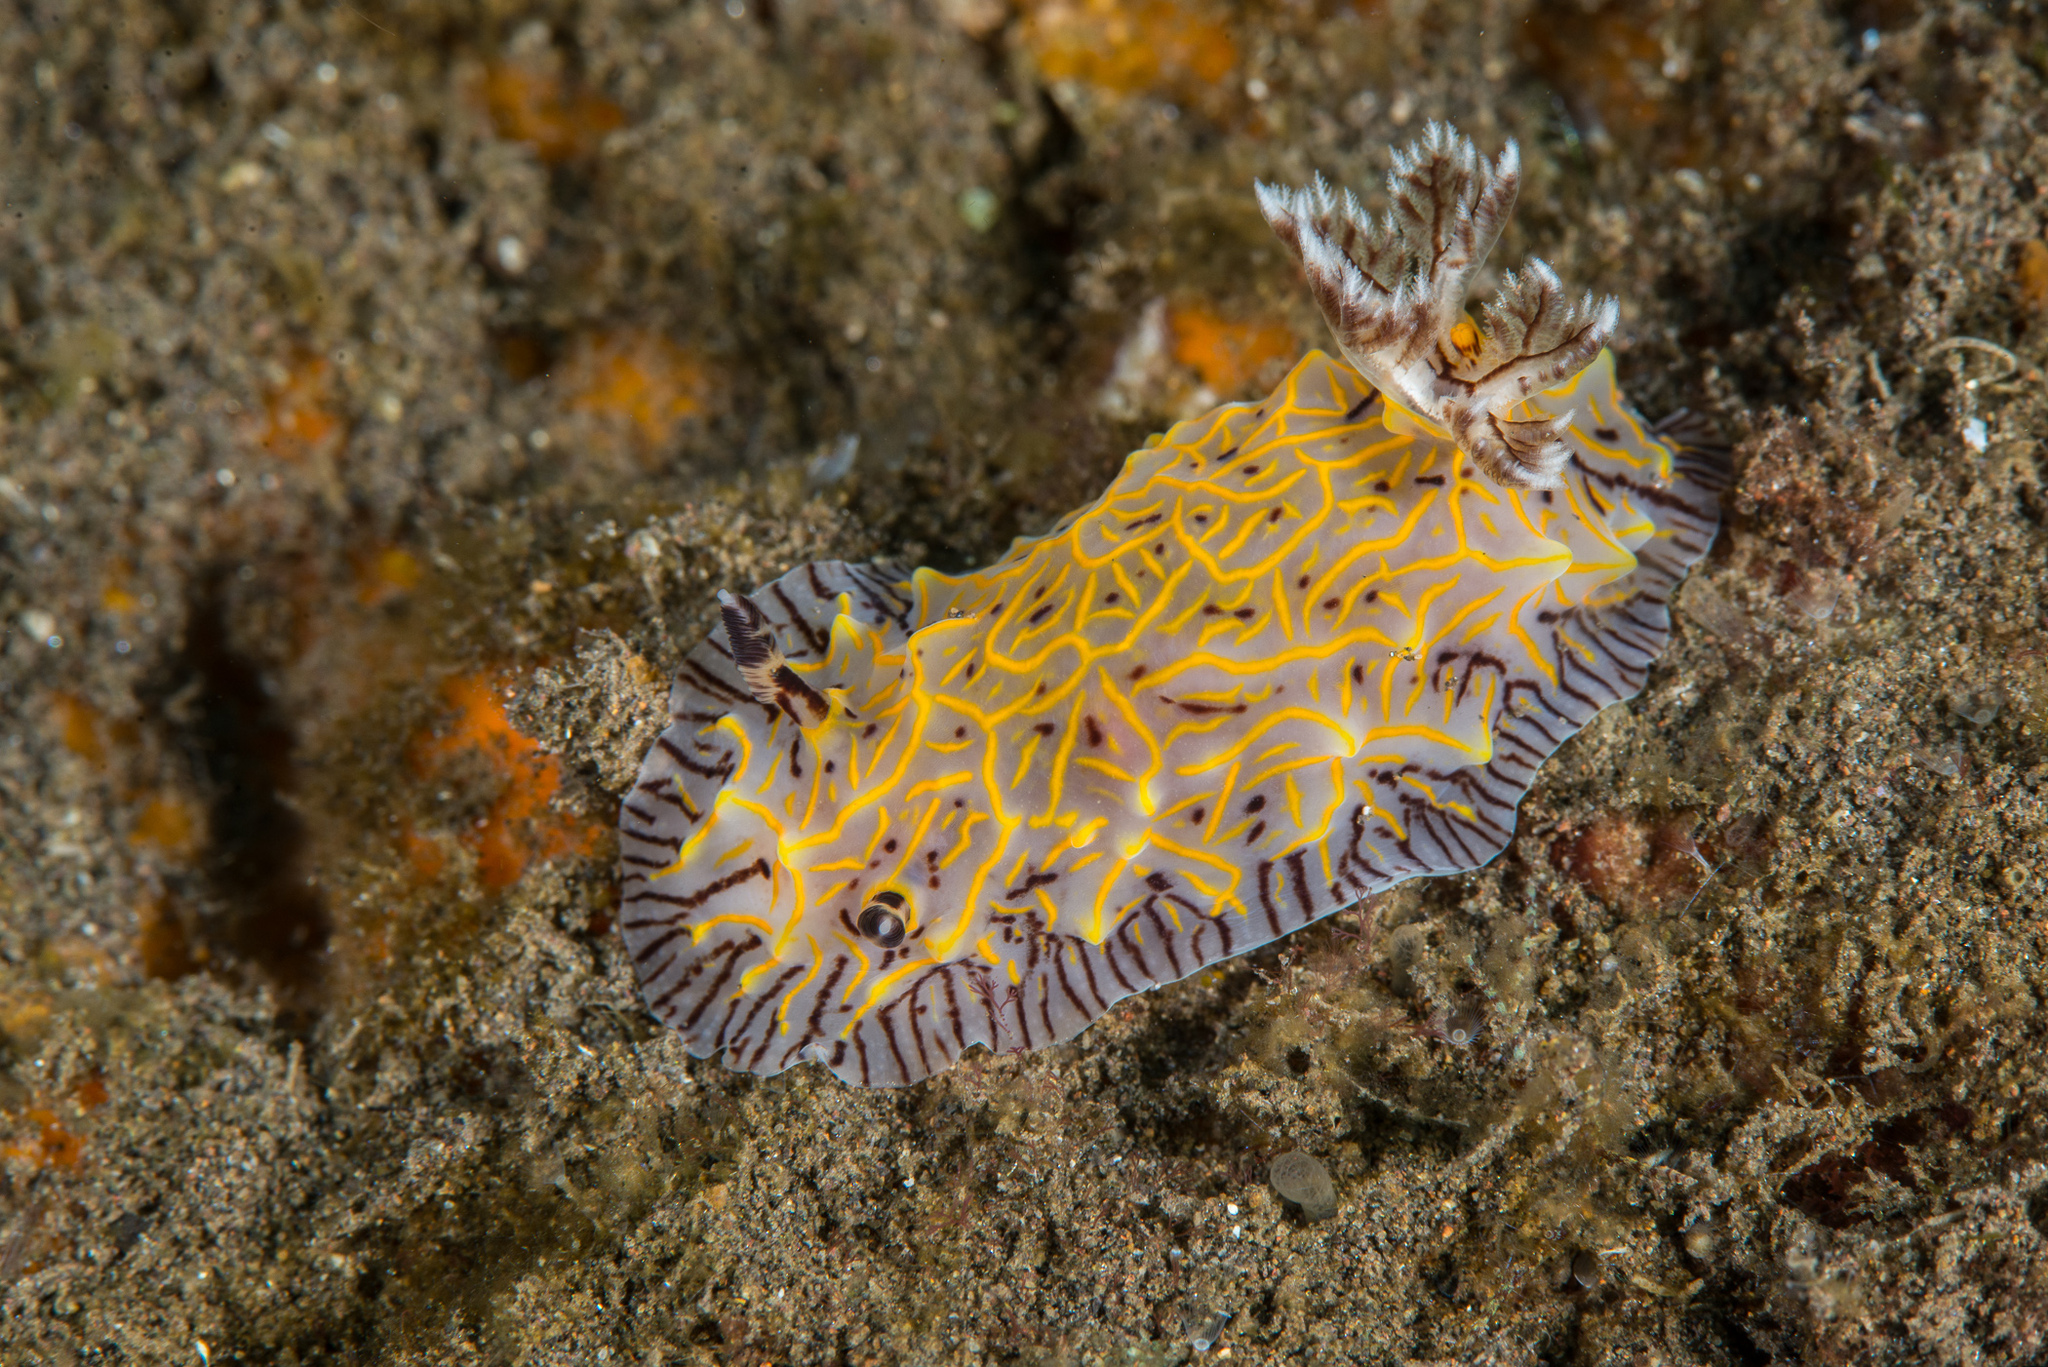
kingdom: Animalia
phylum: Mollusca
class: Gastropoda
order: Nudibranchia
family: Discodorididae
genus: Halgerda
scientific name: Halgerda willeyi
